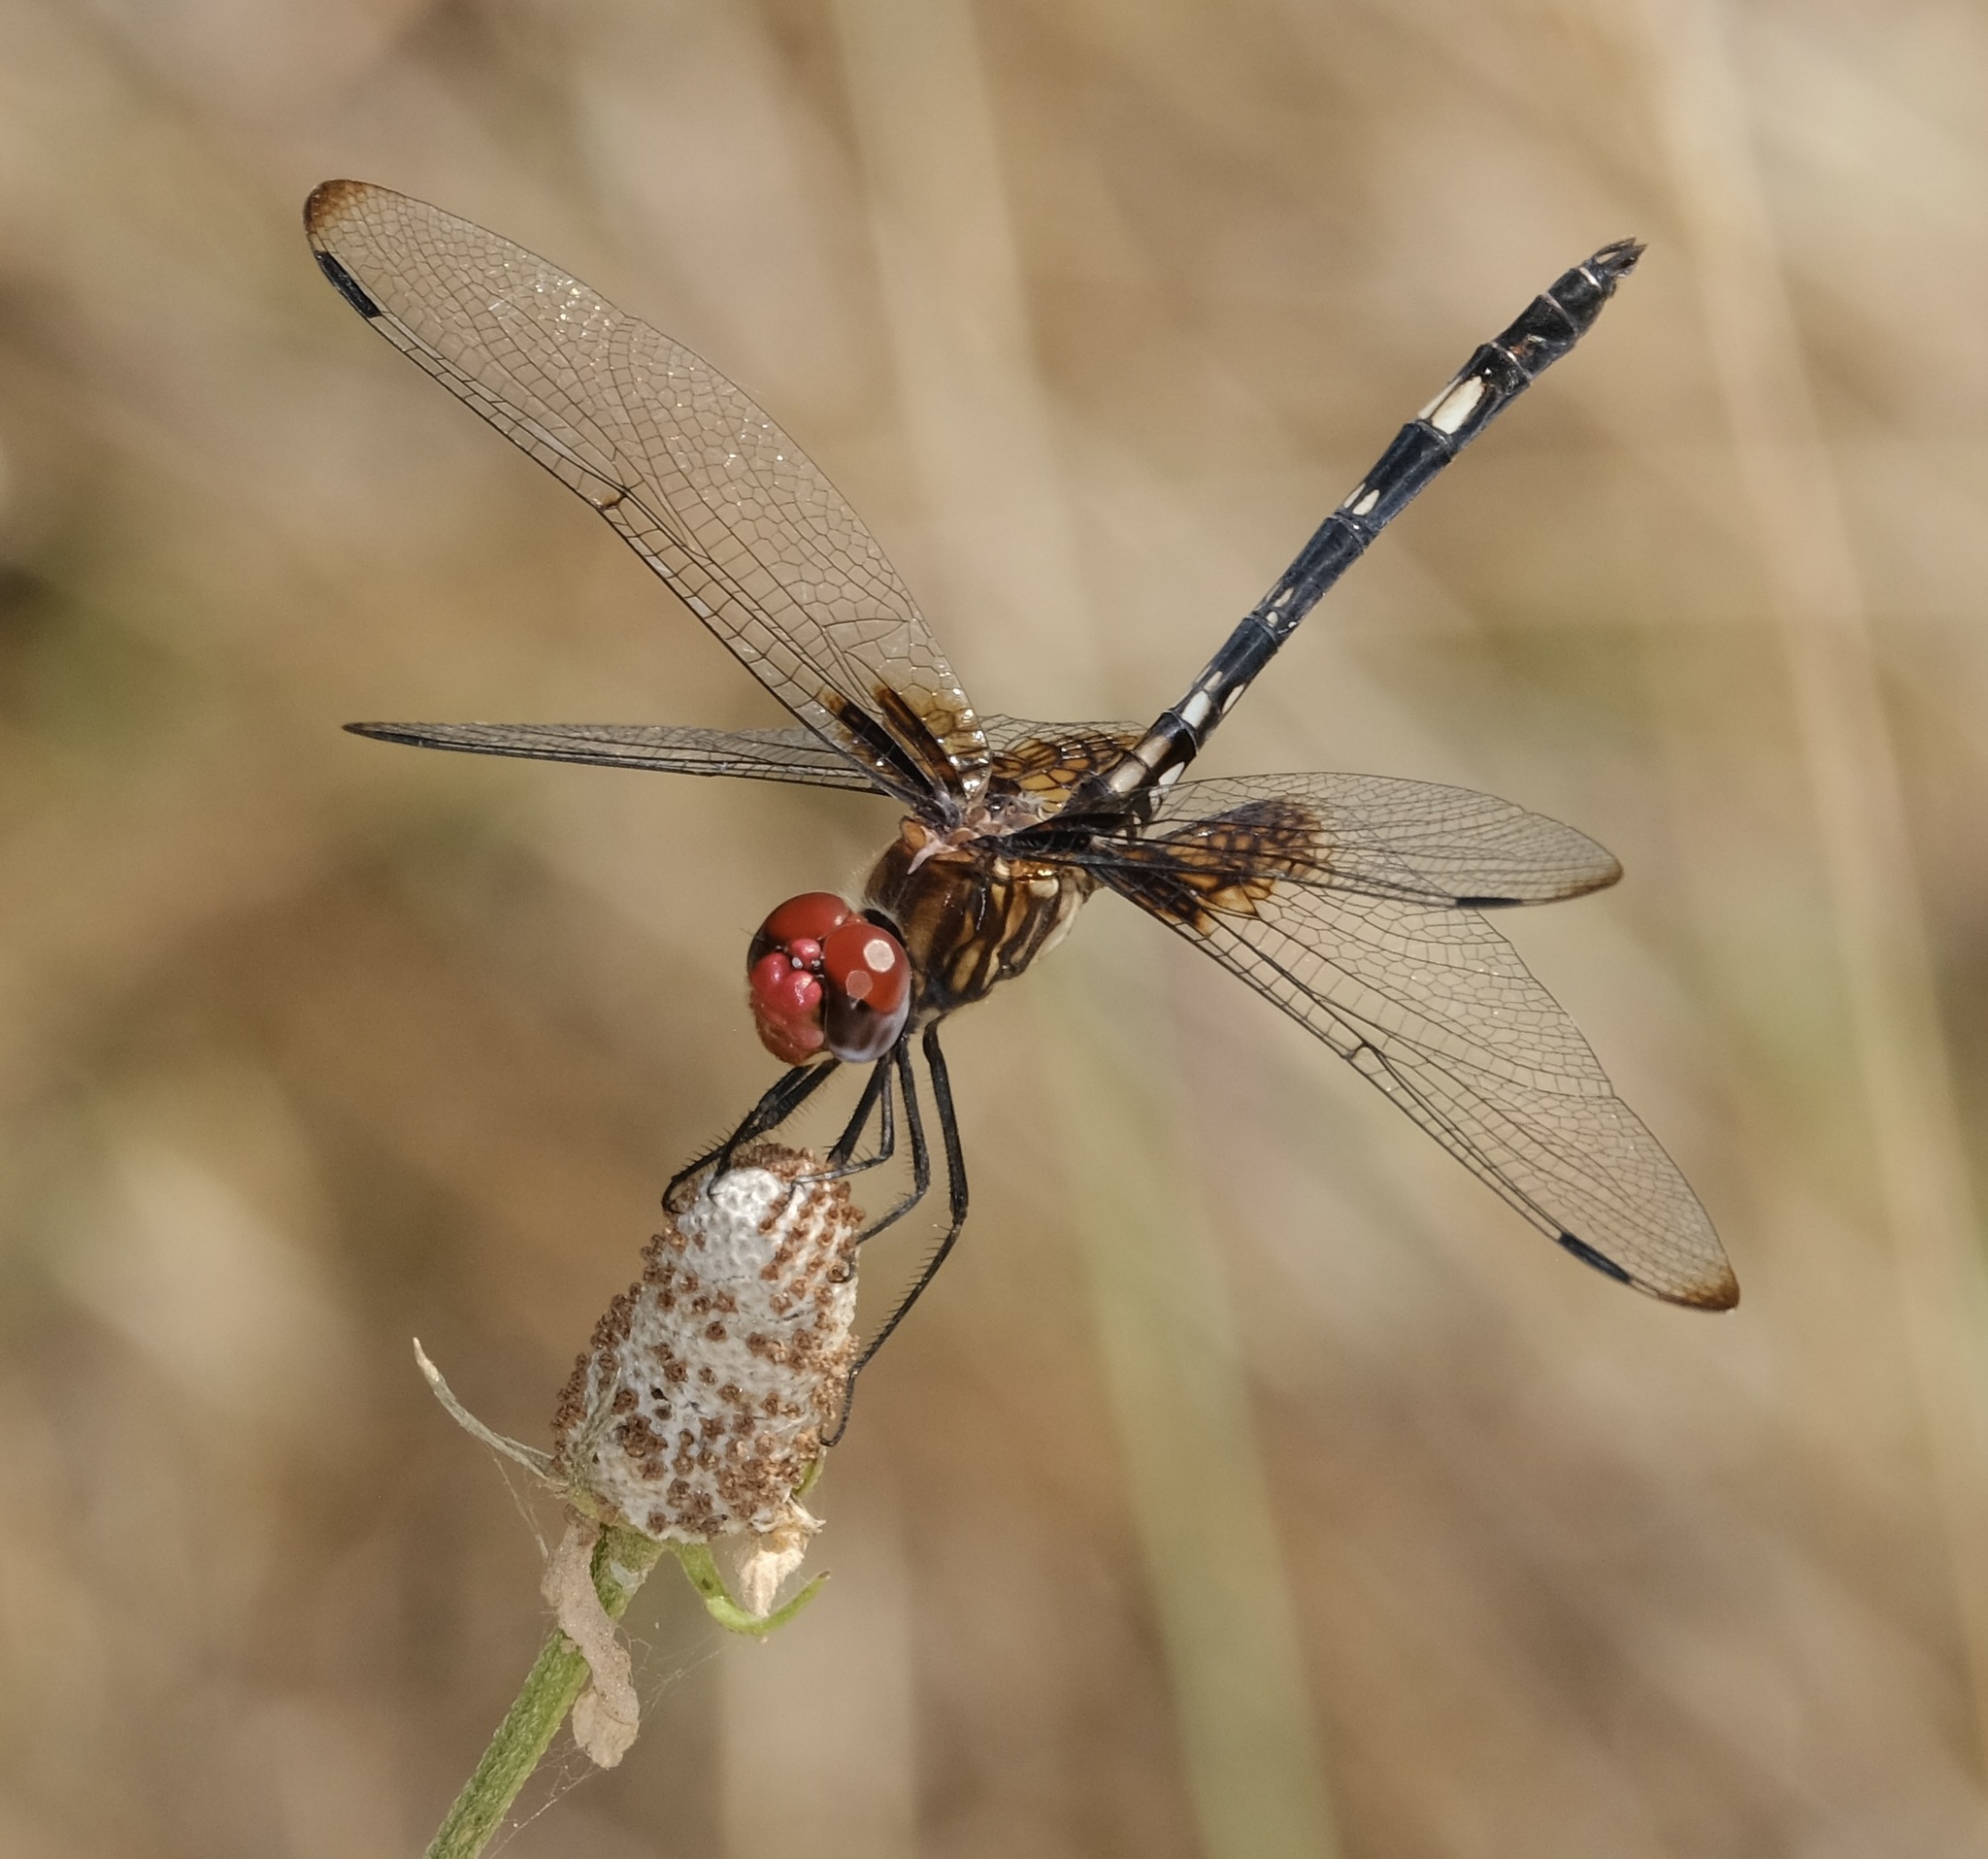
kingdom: Animalia
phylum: Arthropoda
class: Insecta
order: Odonata
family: Libellulidae
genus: Dythemis
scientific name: Dythemis fugax
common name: Checkered setwing
